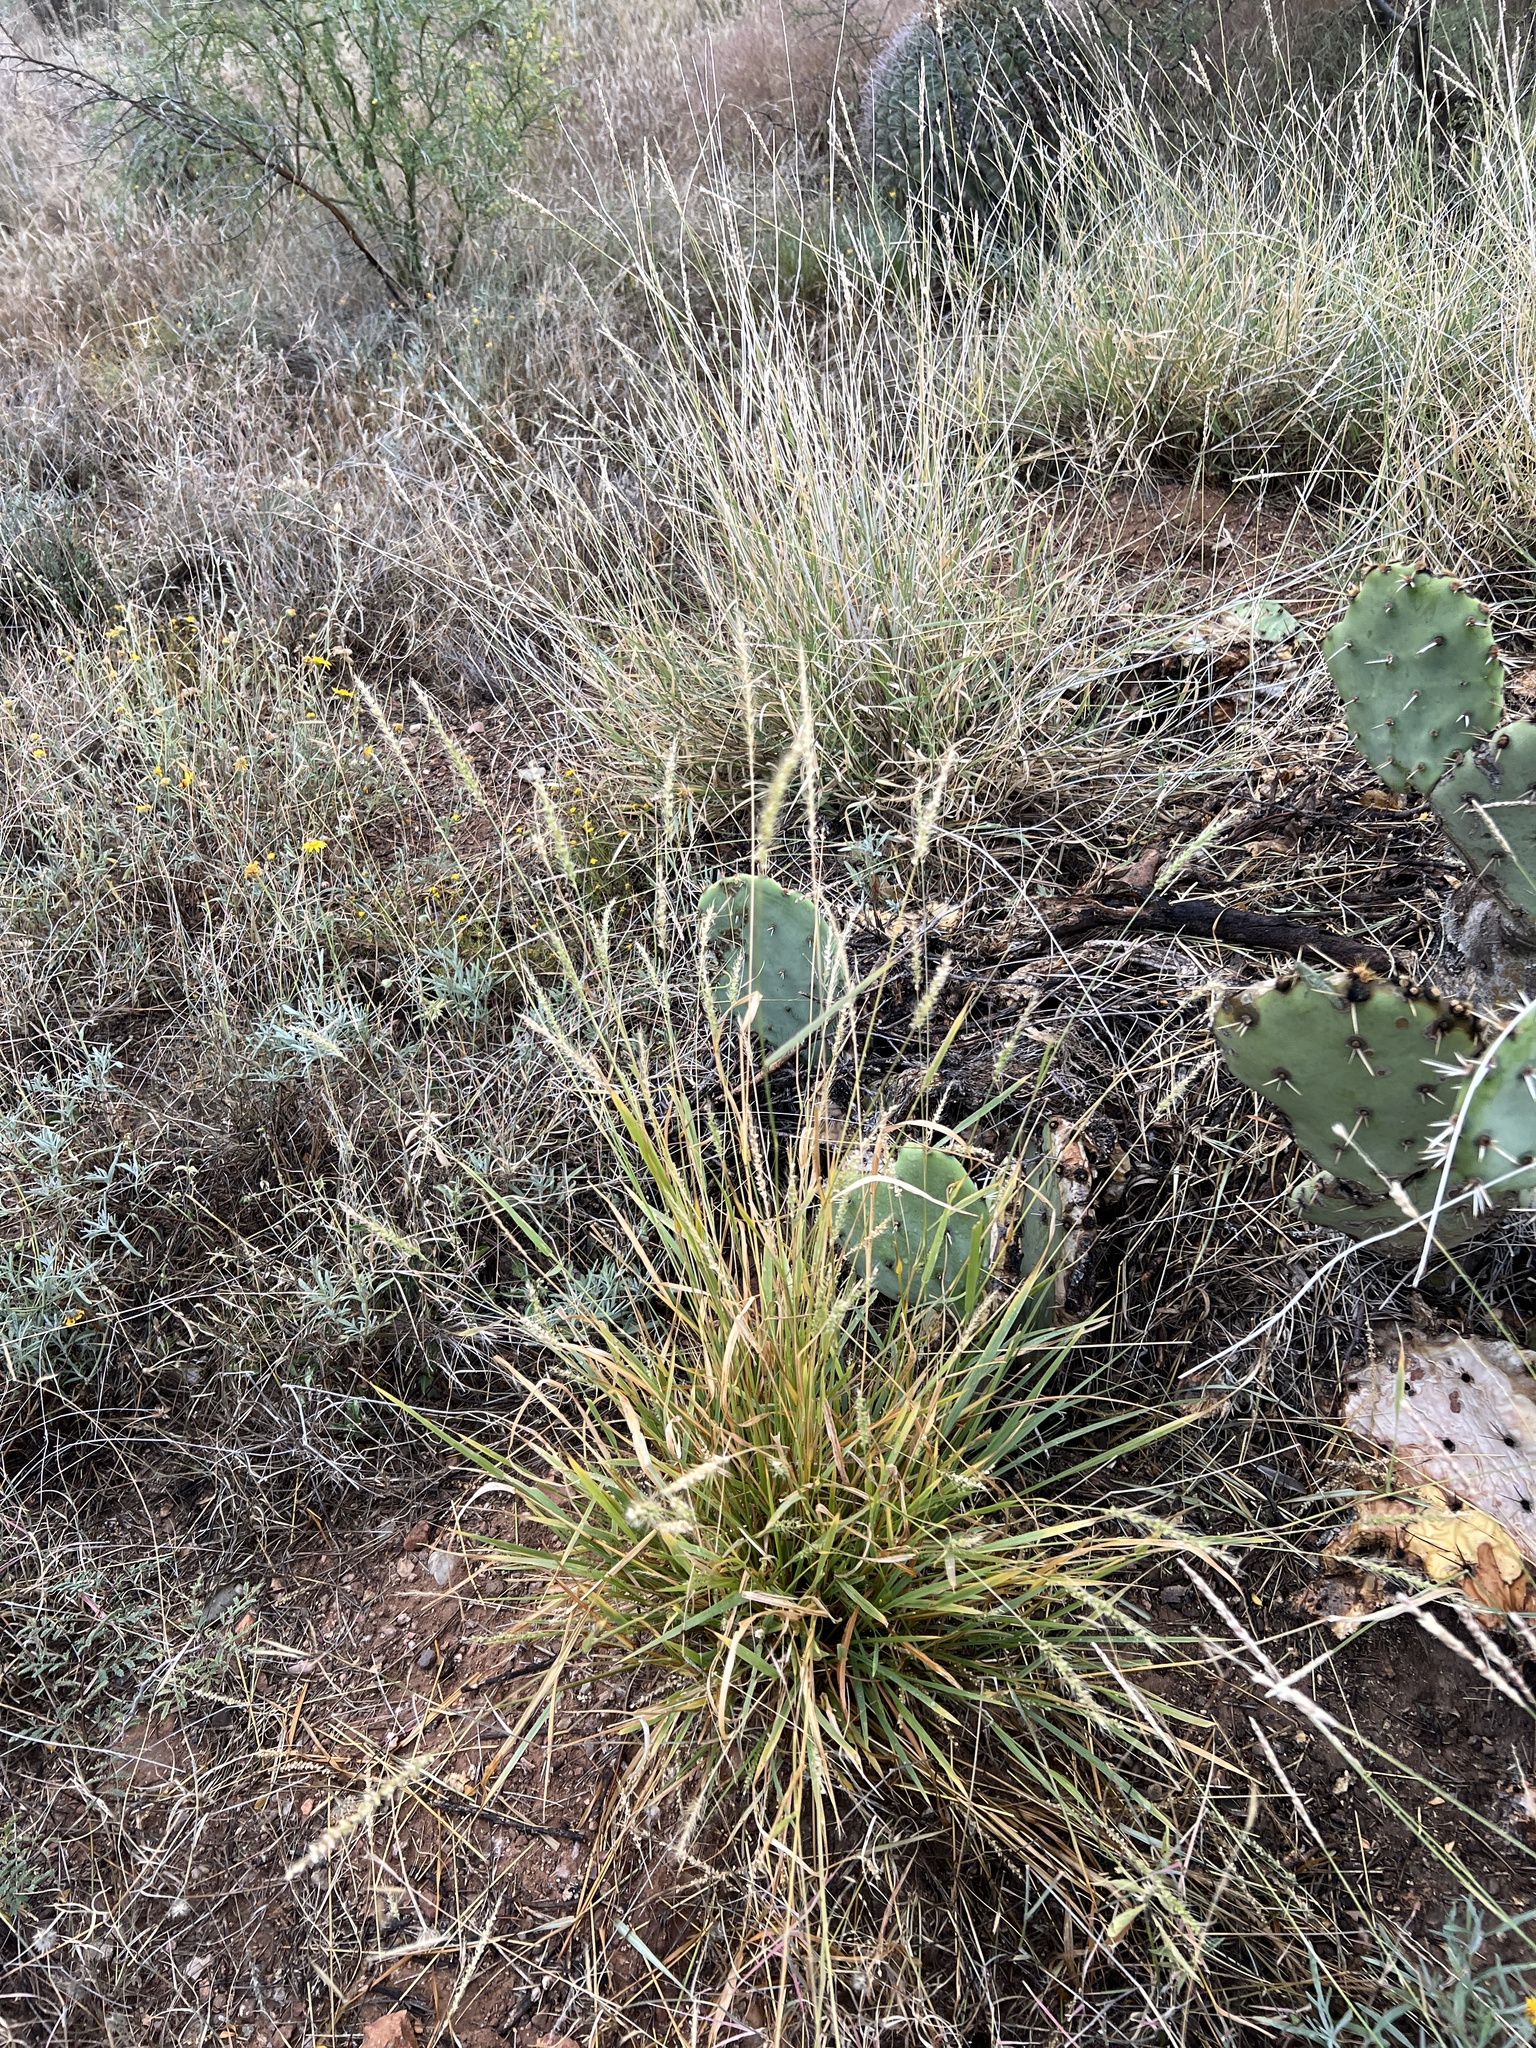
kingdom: Plantae
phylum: Tracheophyta
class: Liliopsida
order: Poales
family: Poaceae
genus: Setaria
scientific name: Setaria leucopila
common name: Plains bristle grass
